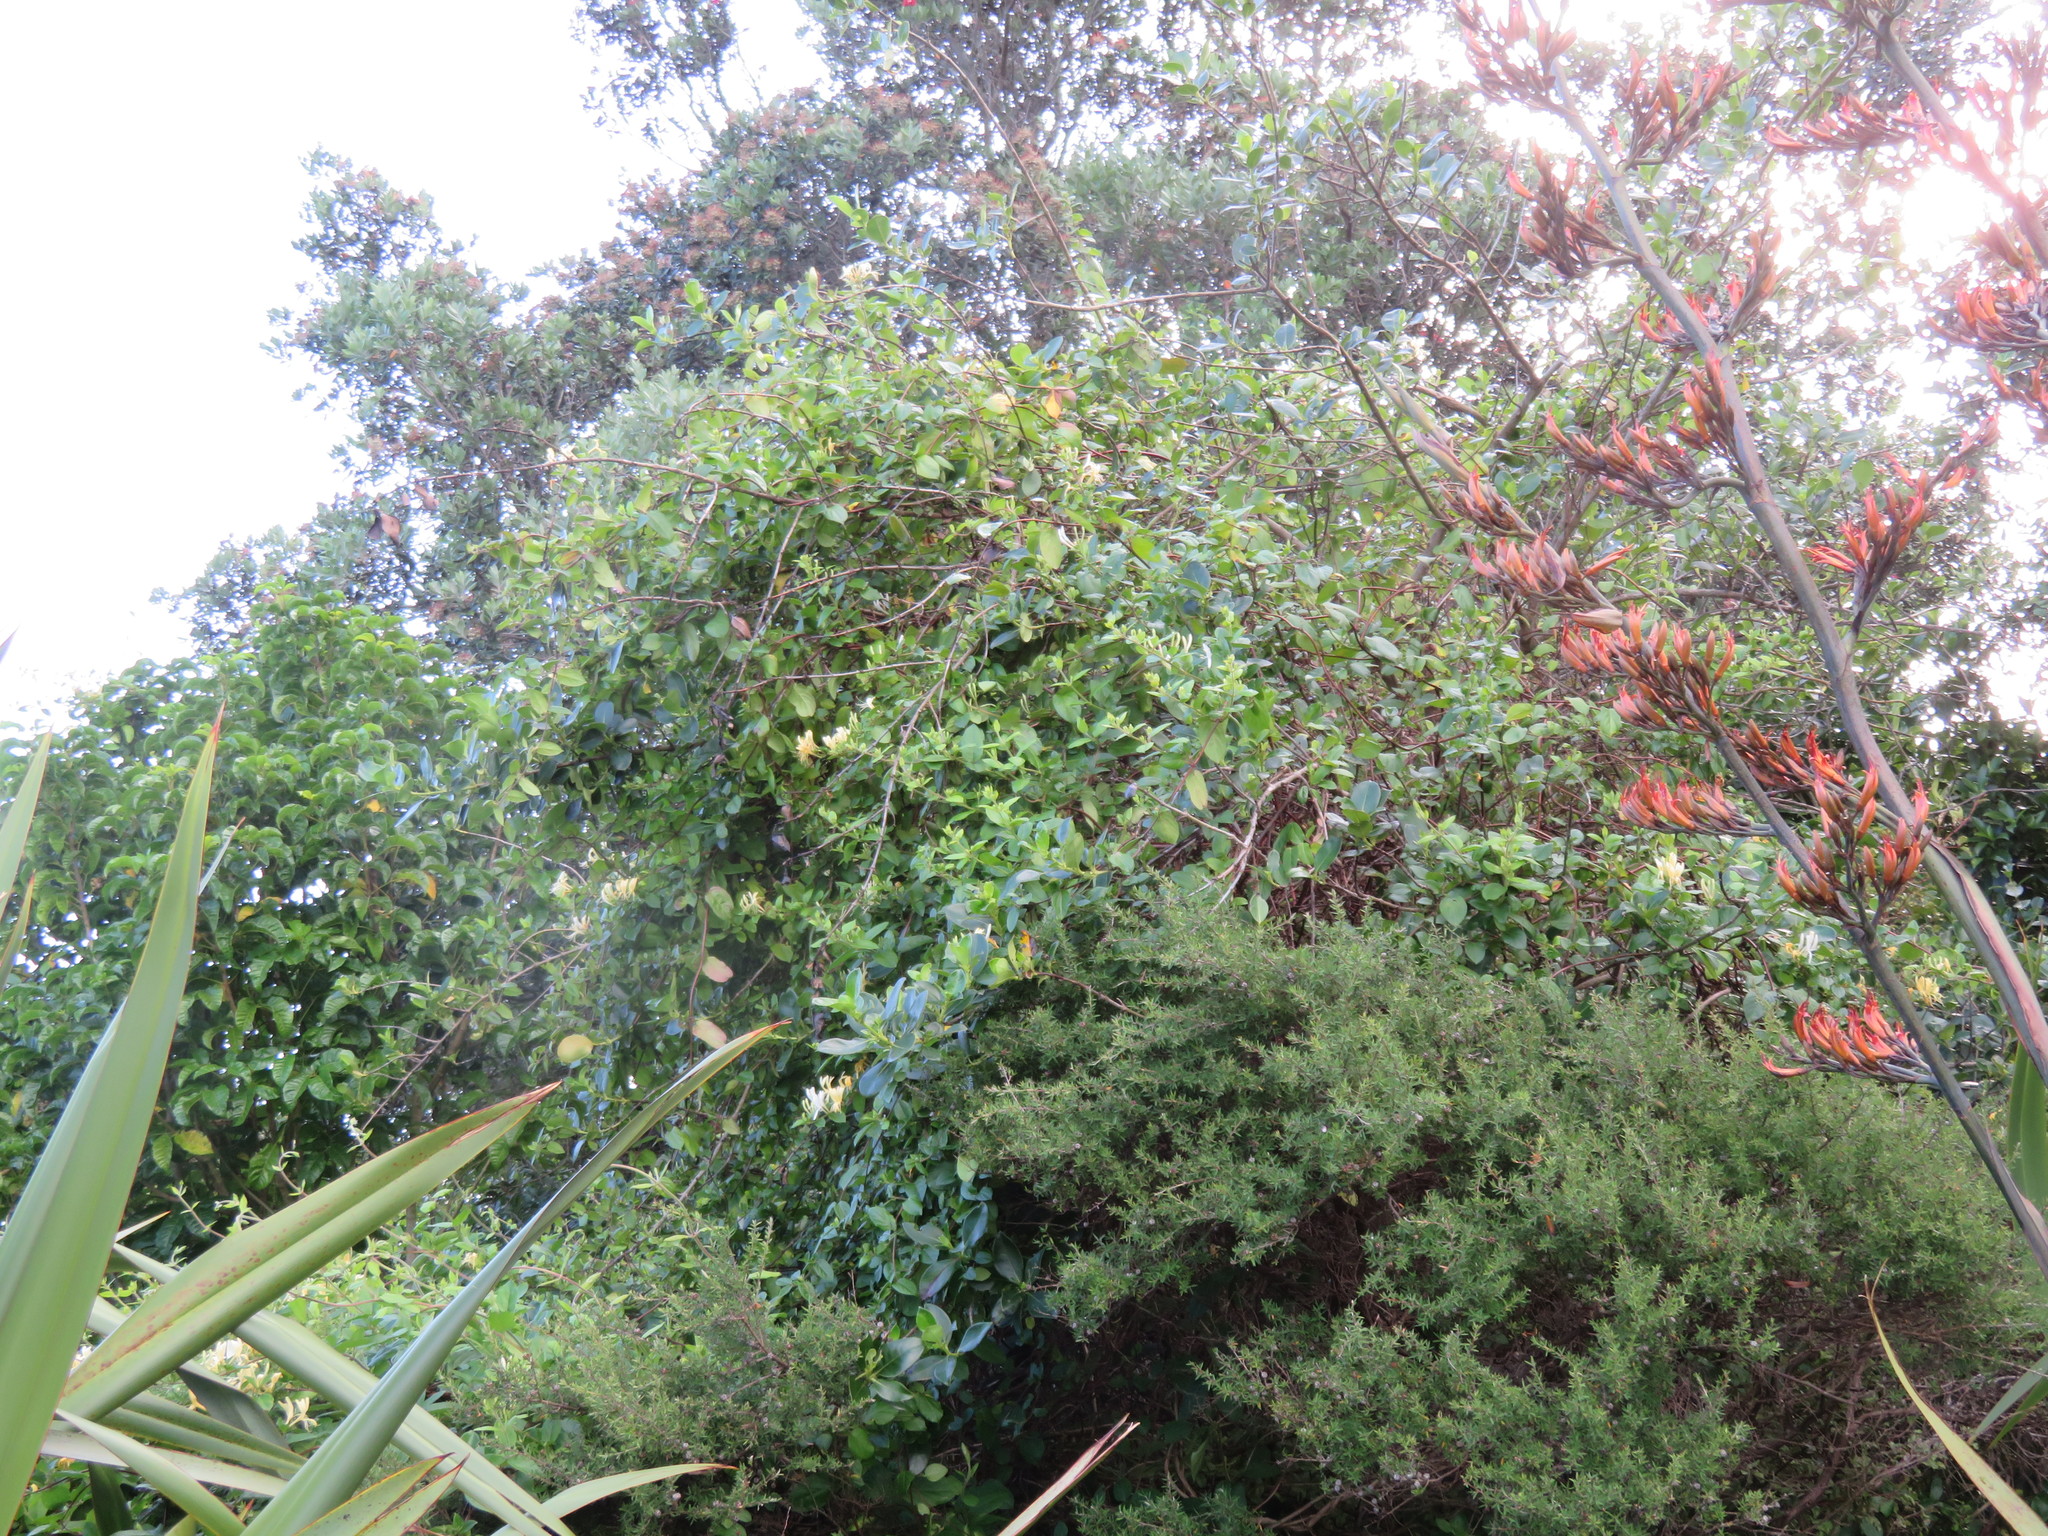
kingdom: Plantae
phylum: Tracheophyta
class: Magnoliopsida
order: Dipsacales
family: Caprifoliaceae
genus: Lonicera
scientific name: Lonicera japonica
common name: Japanese honeysuckle
